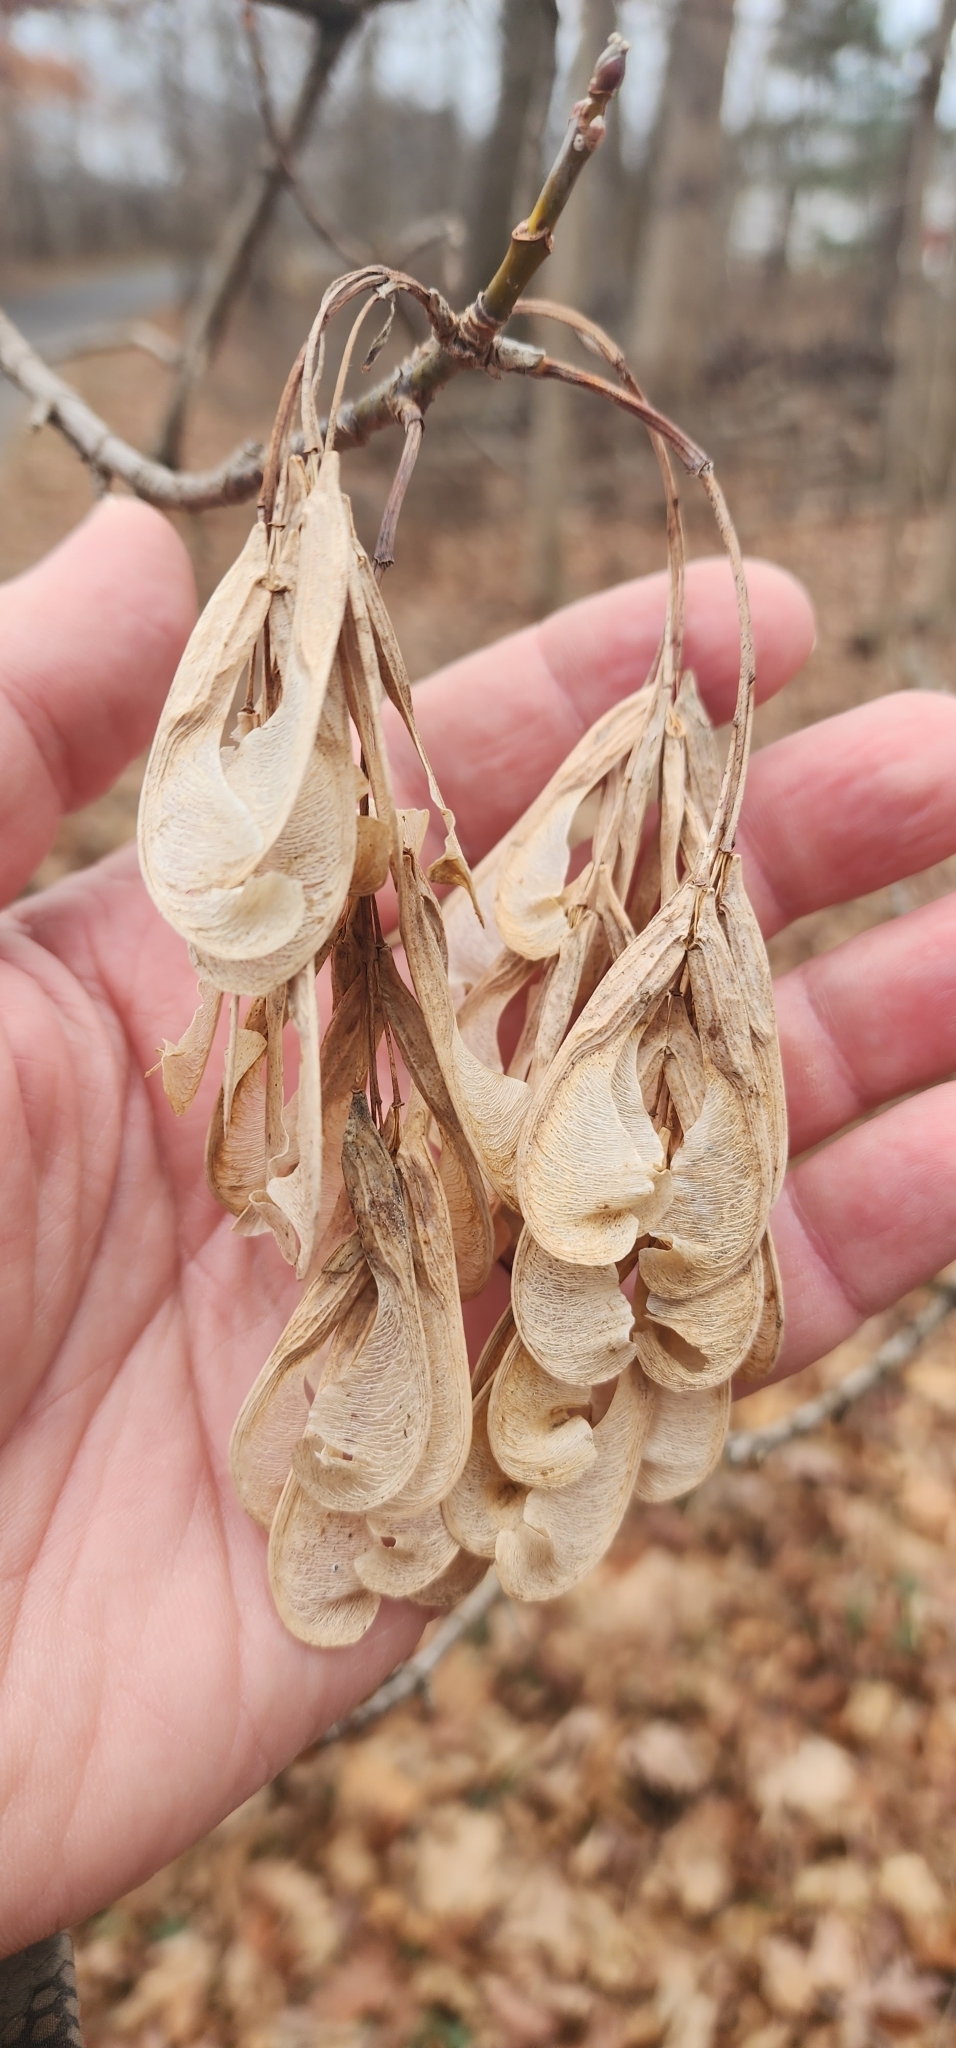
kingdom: Plantae
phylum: Tracheophyta
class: Magnoliopsida
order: Sapindales
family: Sapindaceae
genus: Acer
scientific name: Acer negundo
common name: Ashleaf maple
